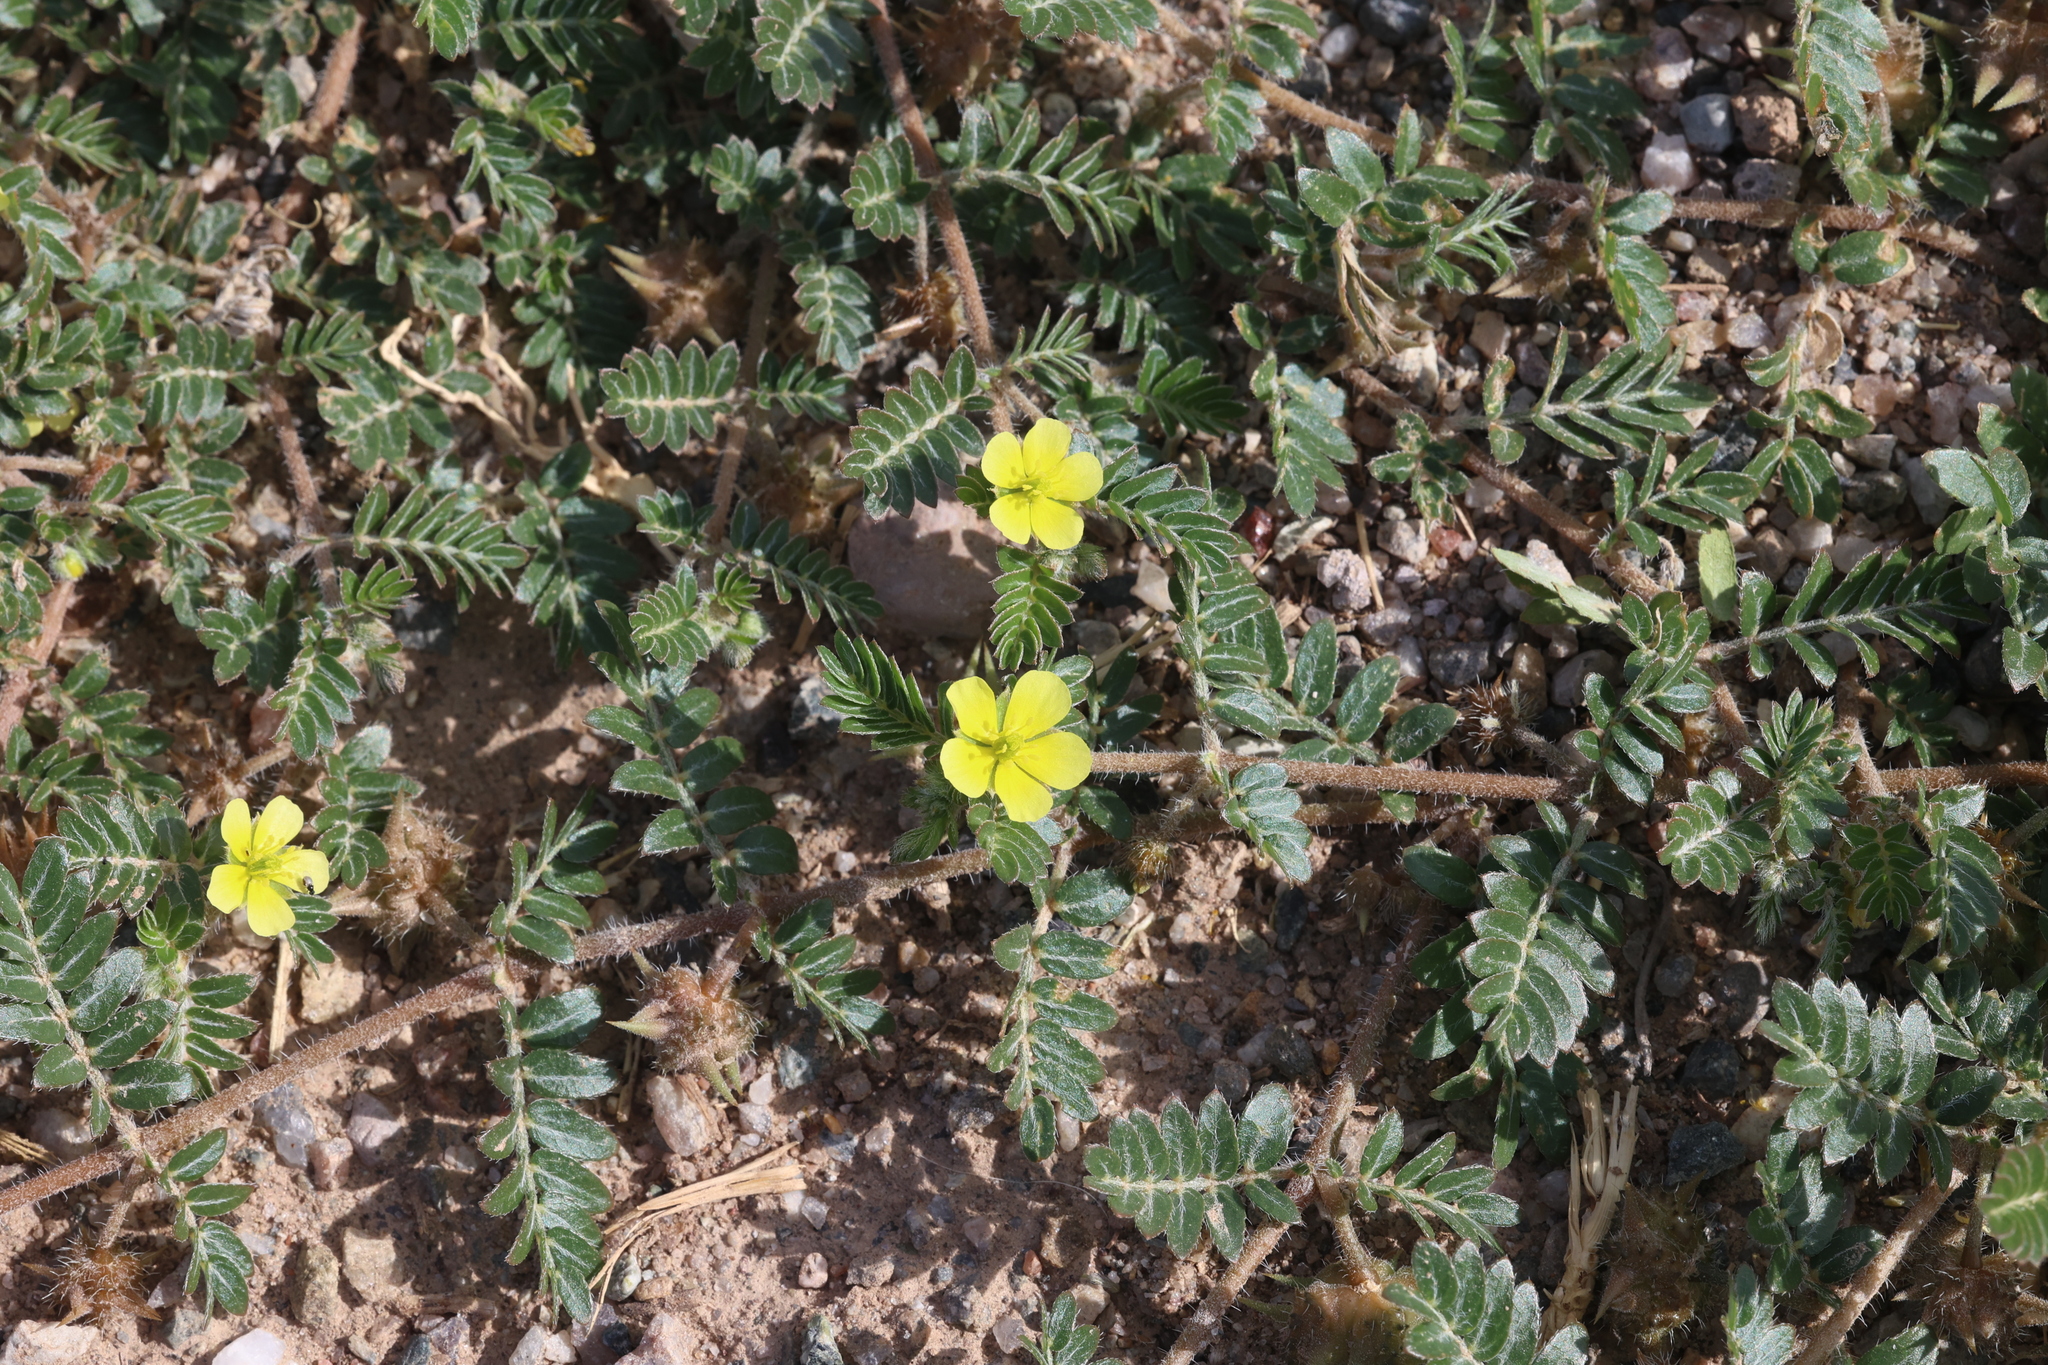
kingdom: Plantae
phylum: Tracheophyta
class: Magnoliopsida
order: Zygophyllales
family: Zygophyllaceae
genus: Tribulus
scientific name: Tribulus terrestris
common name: Puncturevine
